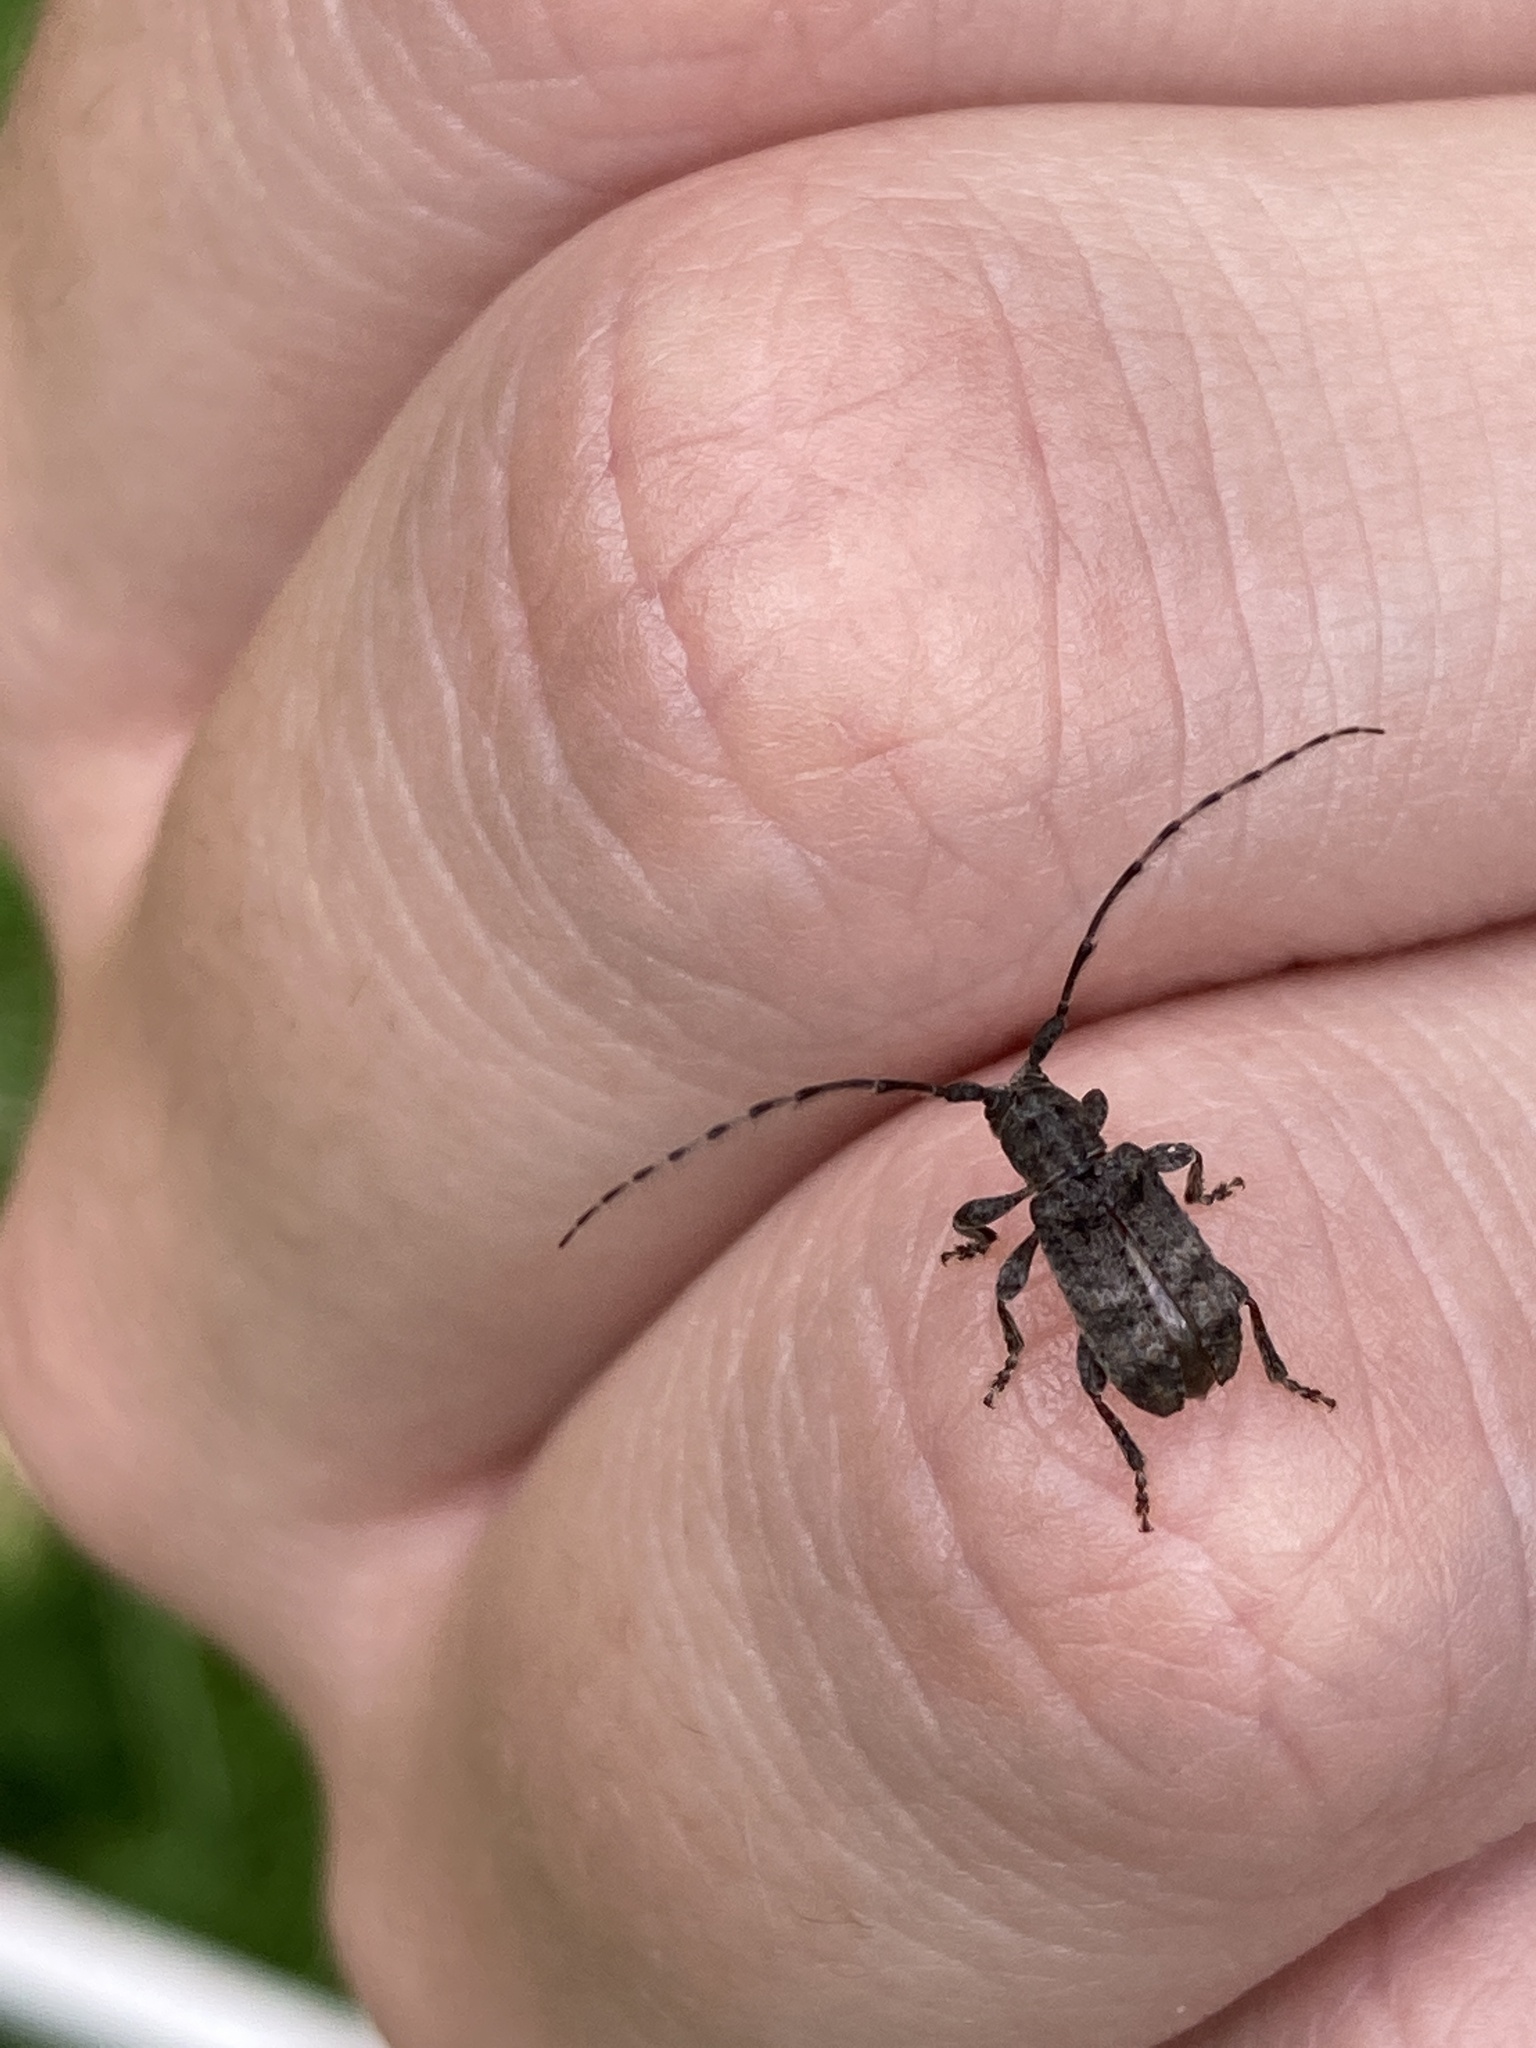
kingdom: Animalia
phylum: Arthropoda
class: Insecta
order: Coleoptera
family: Cerambycidae
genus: Ecyrus
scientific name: Ecyrus dasycerus
